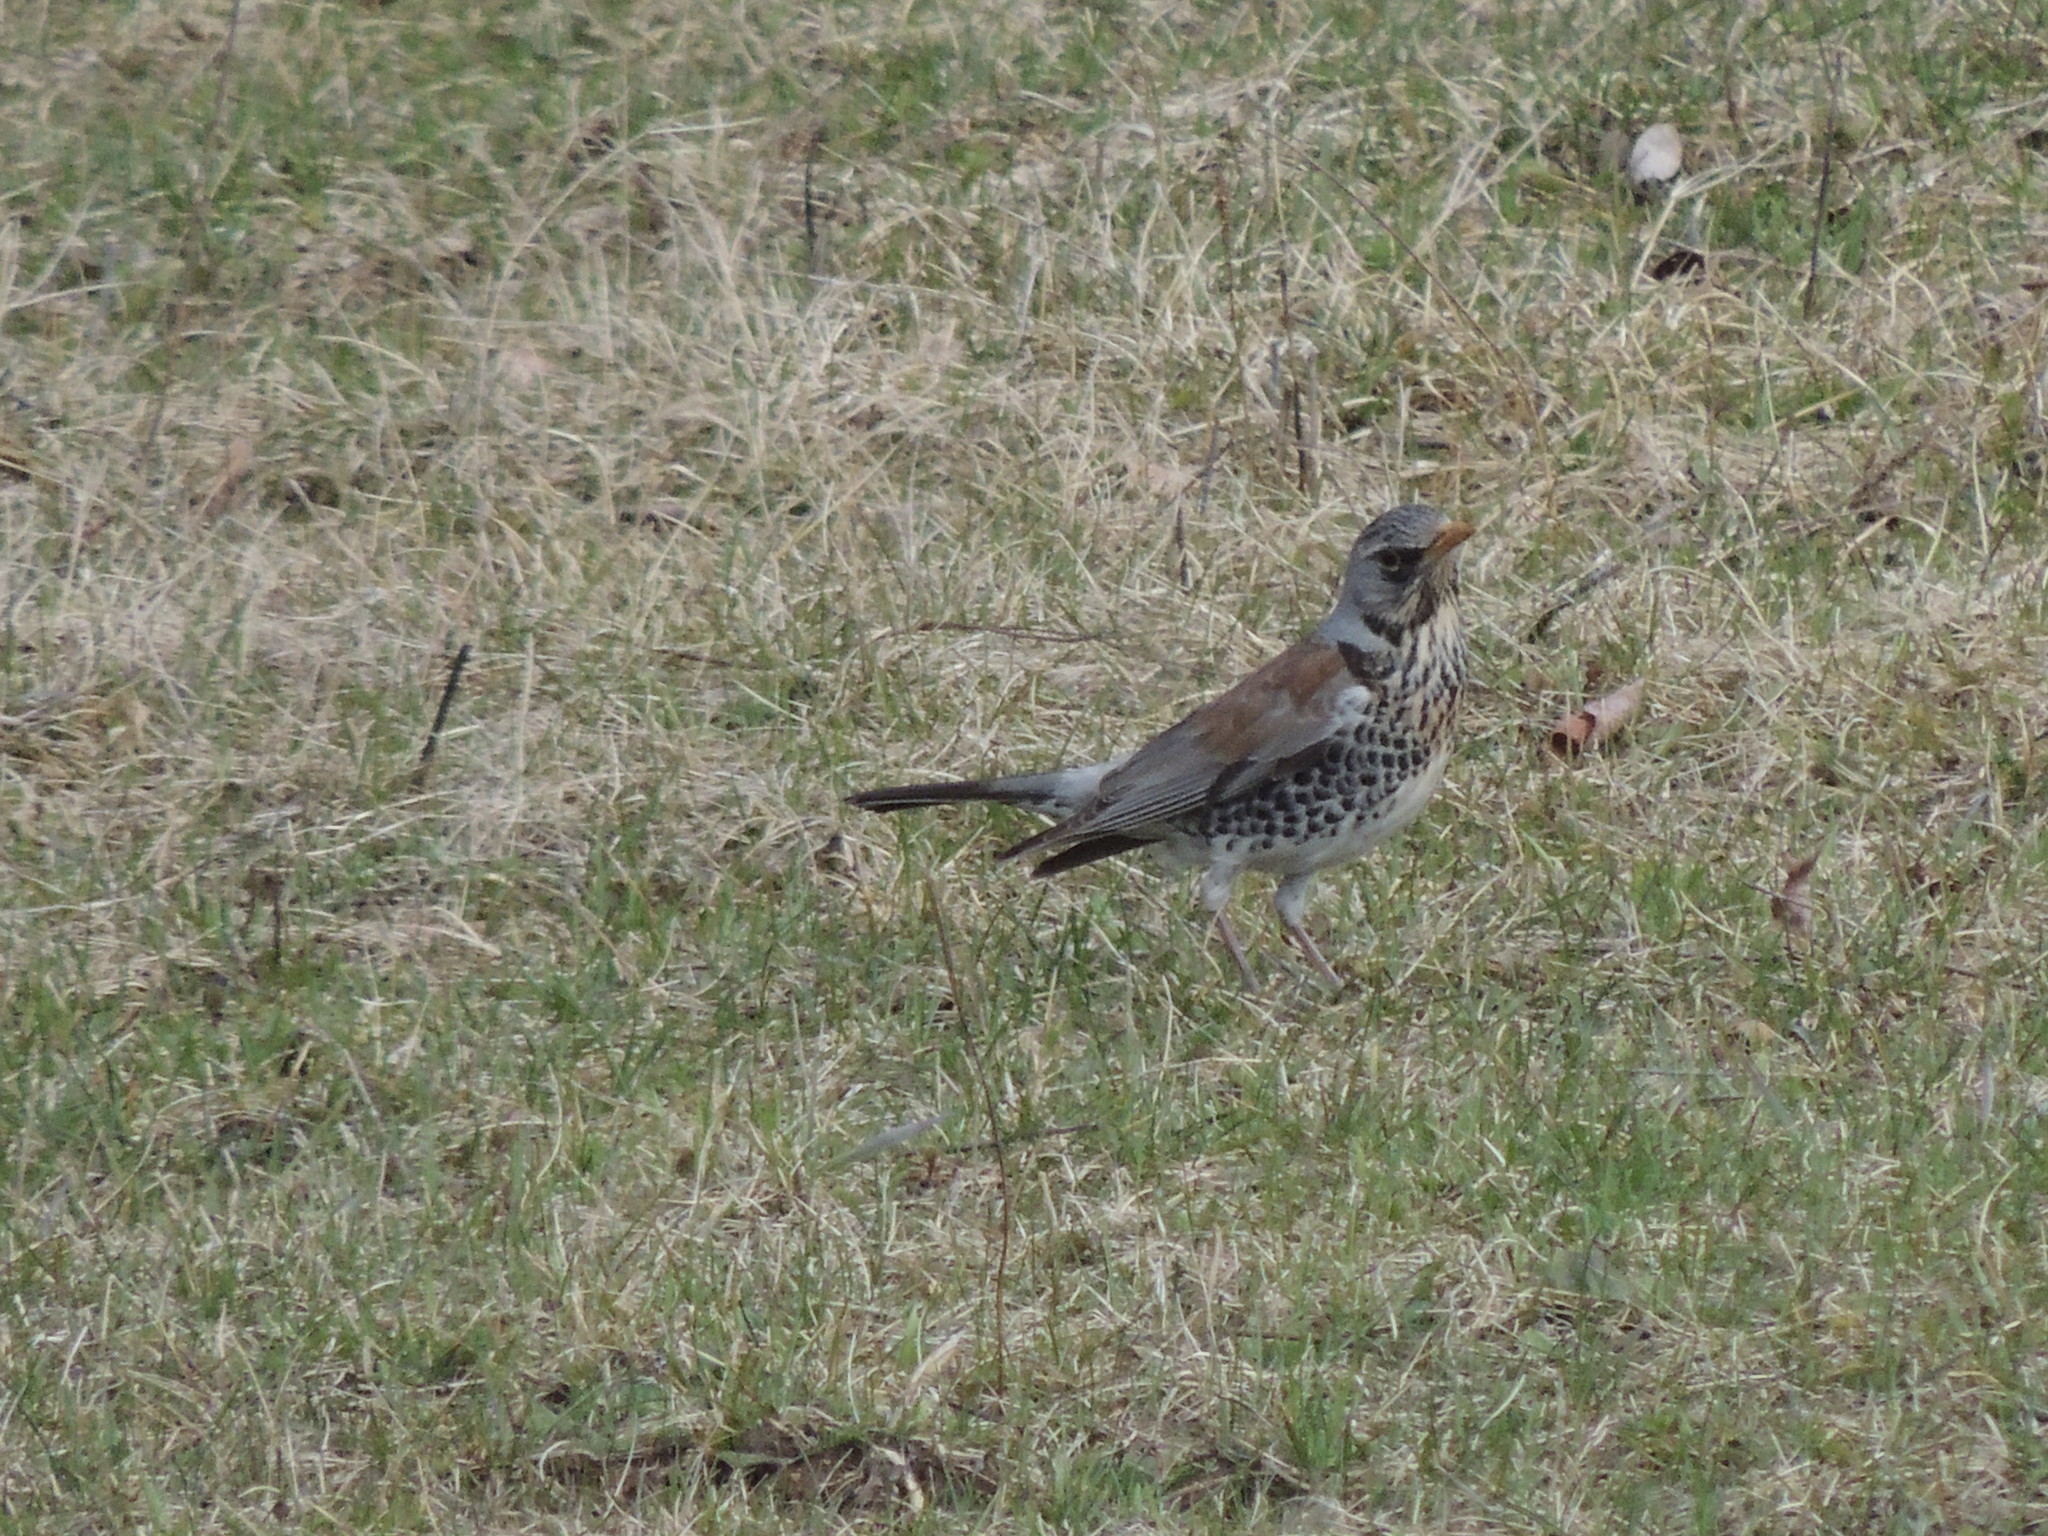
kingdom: Animalia
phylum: Chordata
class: Aves
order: Passeriformes
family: Turdidae
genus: Turdus
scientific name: Turdus pilaris
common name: Fieldfare
